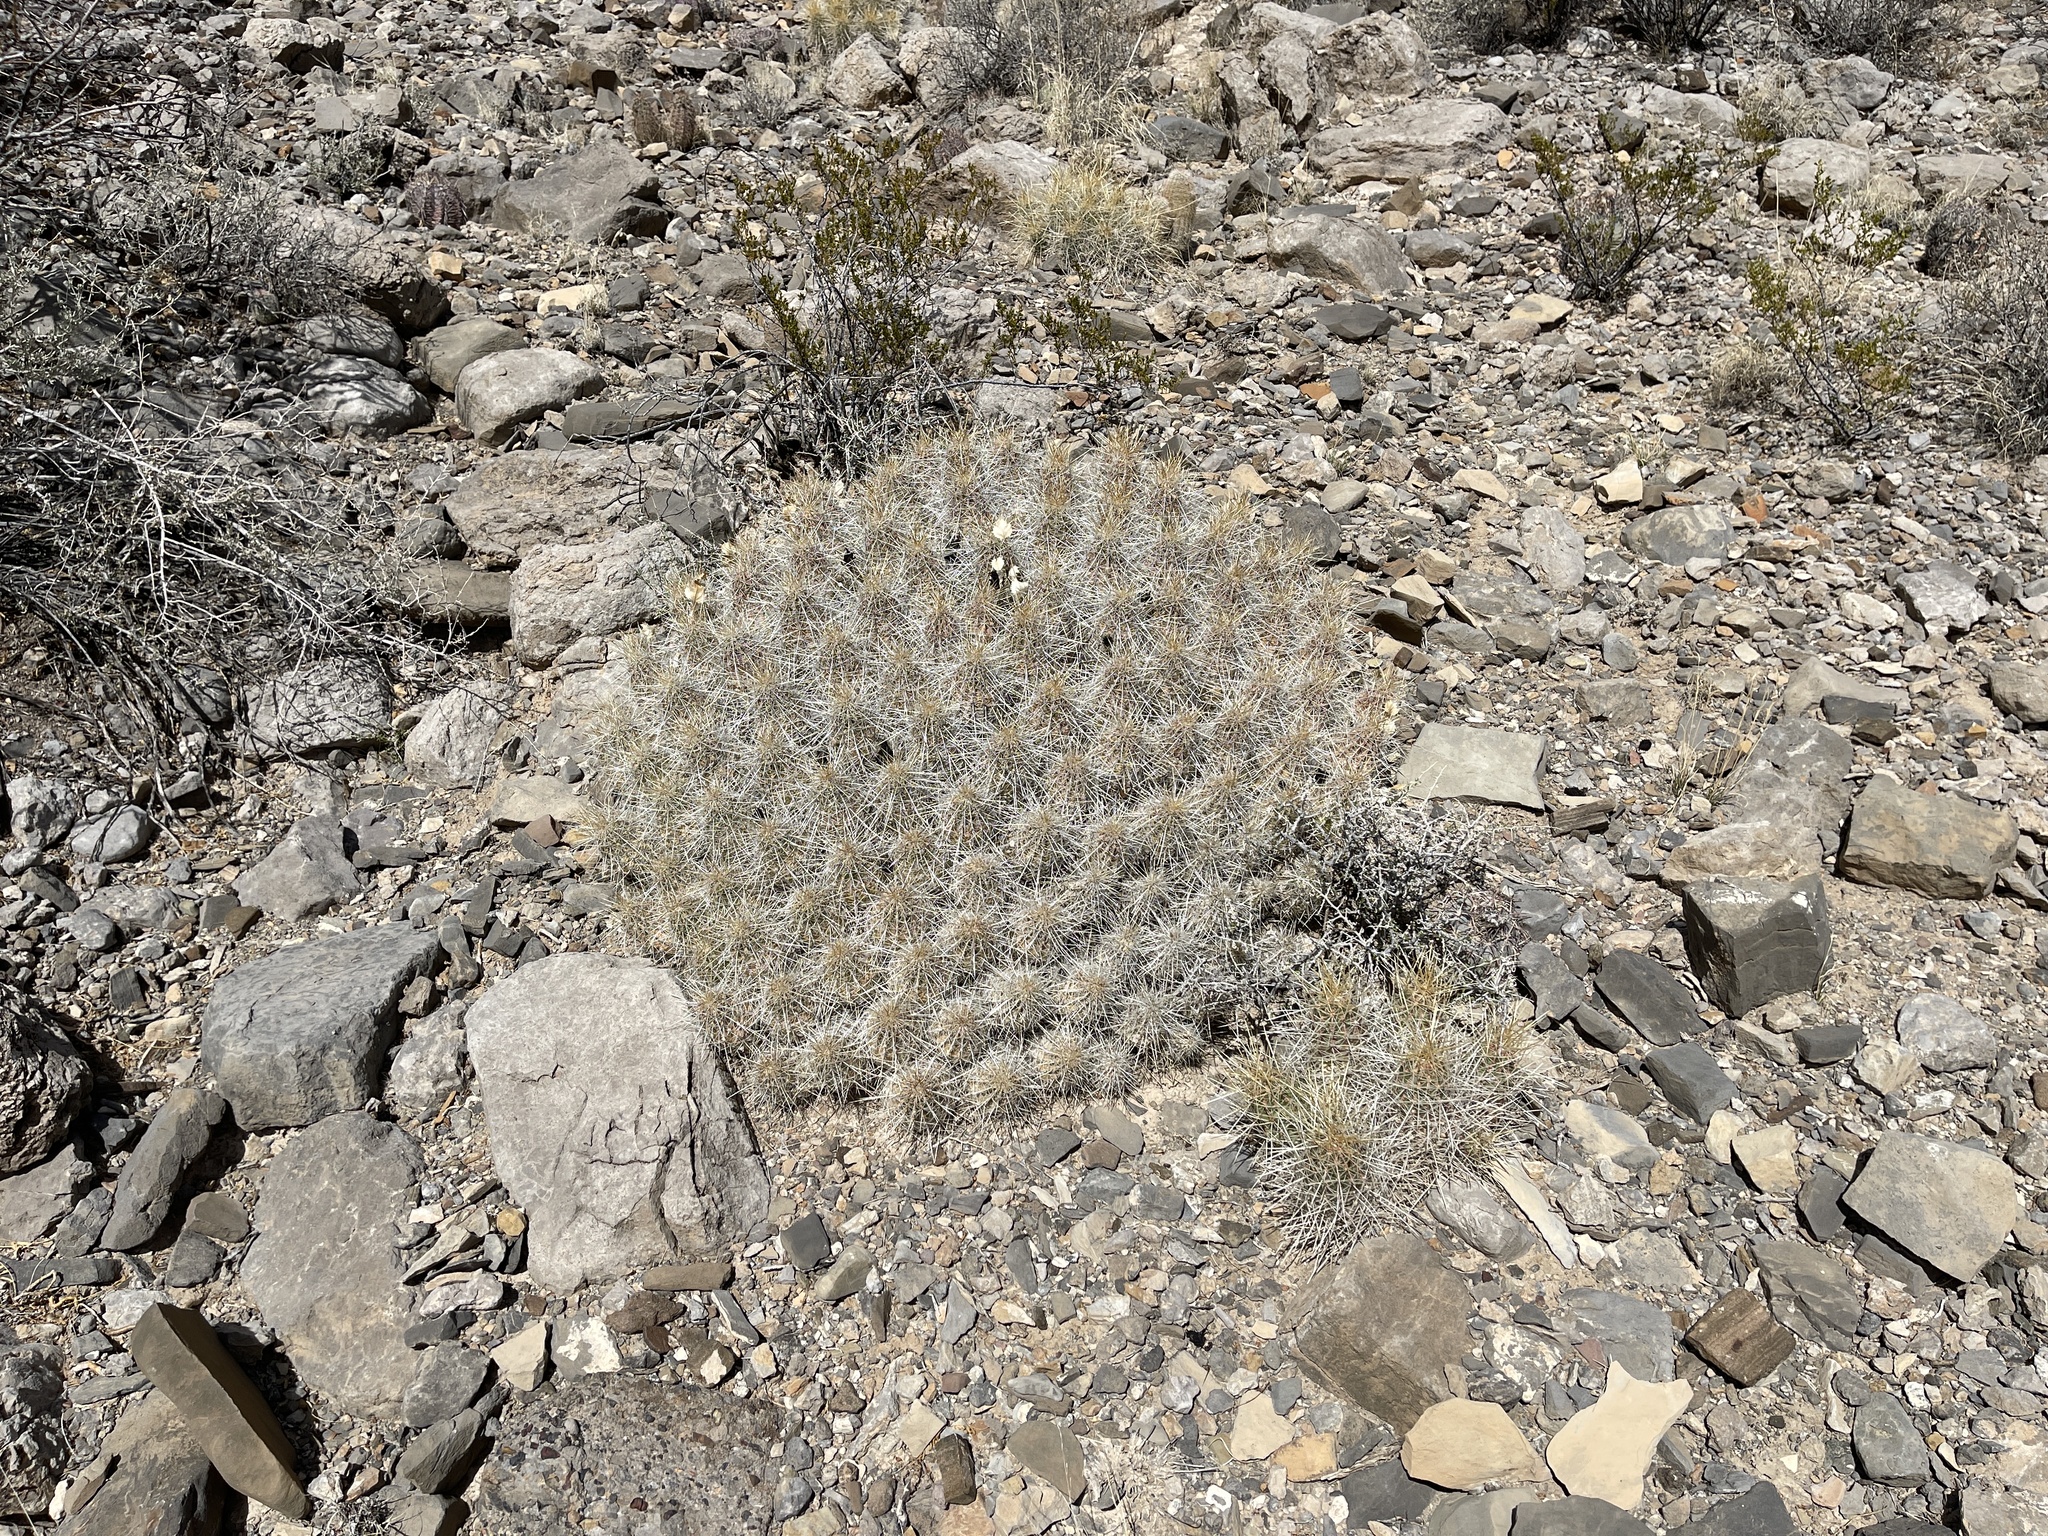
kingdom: Plantae
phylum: Tracheophyta
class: Magnoliopsida
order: Caryophyllales
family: Cactaceae
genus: Echinocereus
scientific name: Echinocereus stramineus
